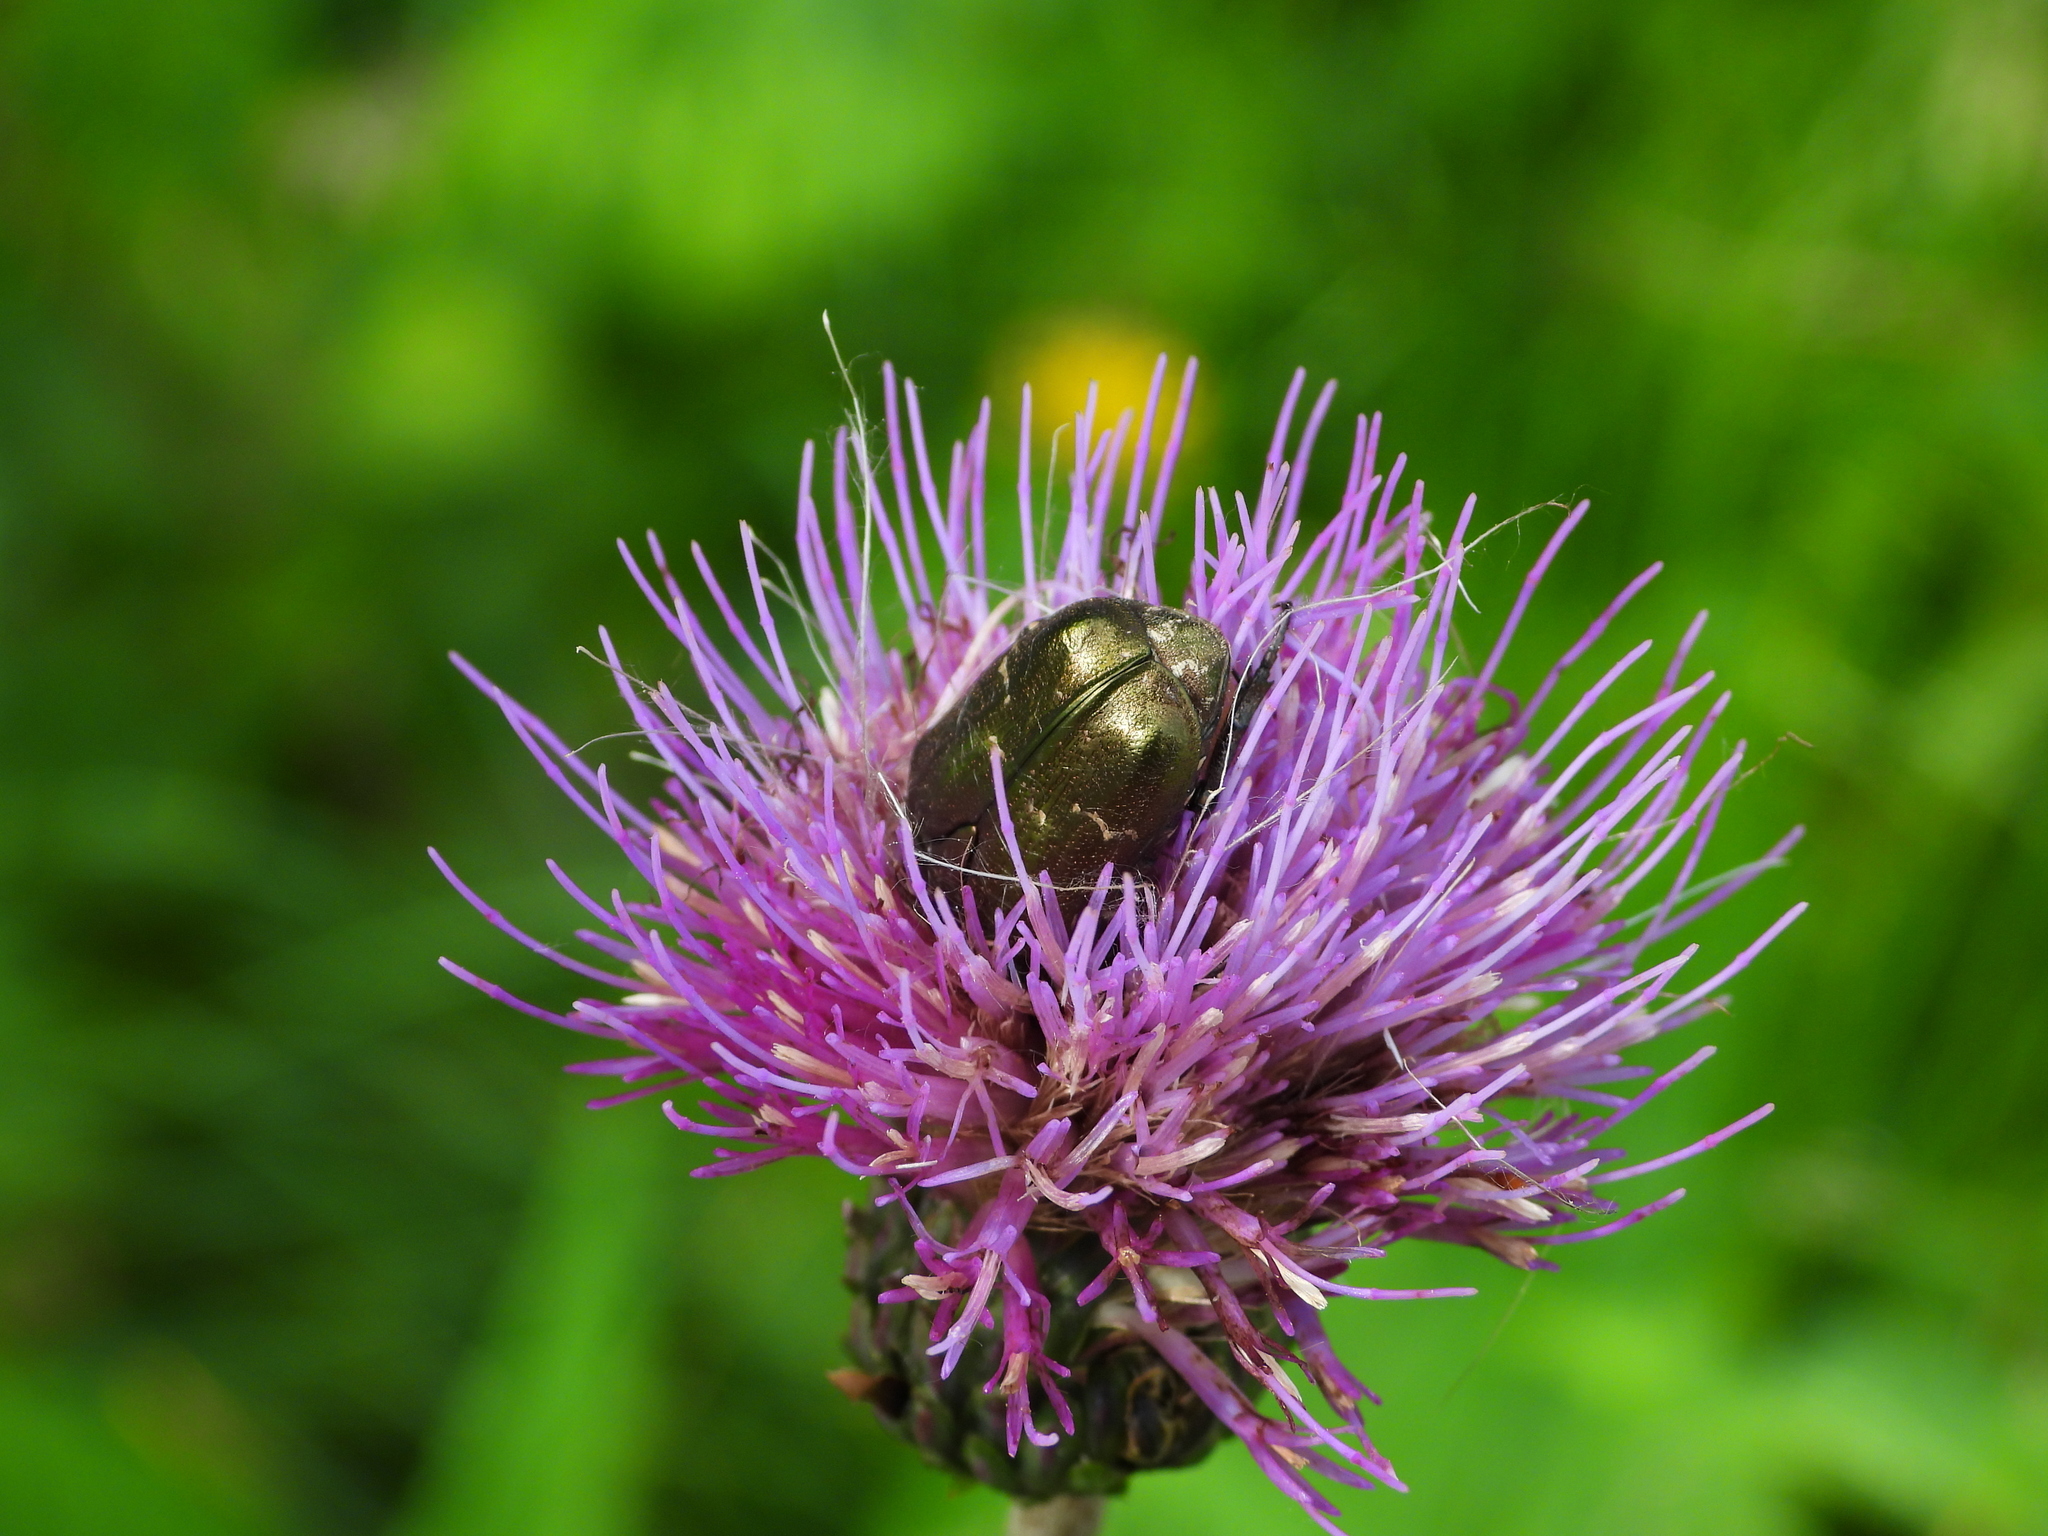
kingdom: Animalia
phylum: Arthropoda
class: Insecta
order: Coleoptera
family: Scarabaeidae
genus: Protaetia
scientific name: Protaetia cuprea
